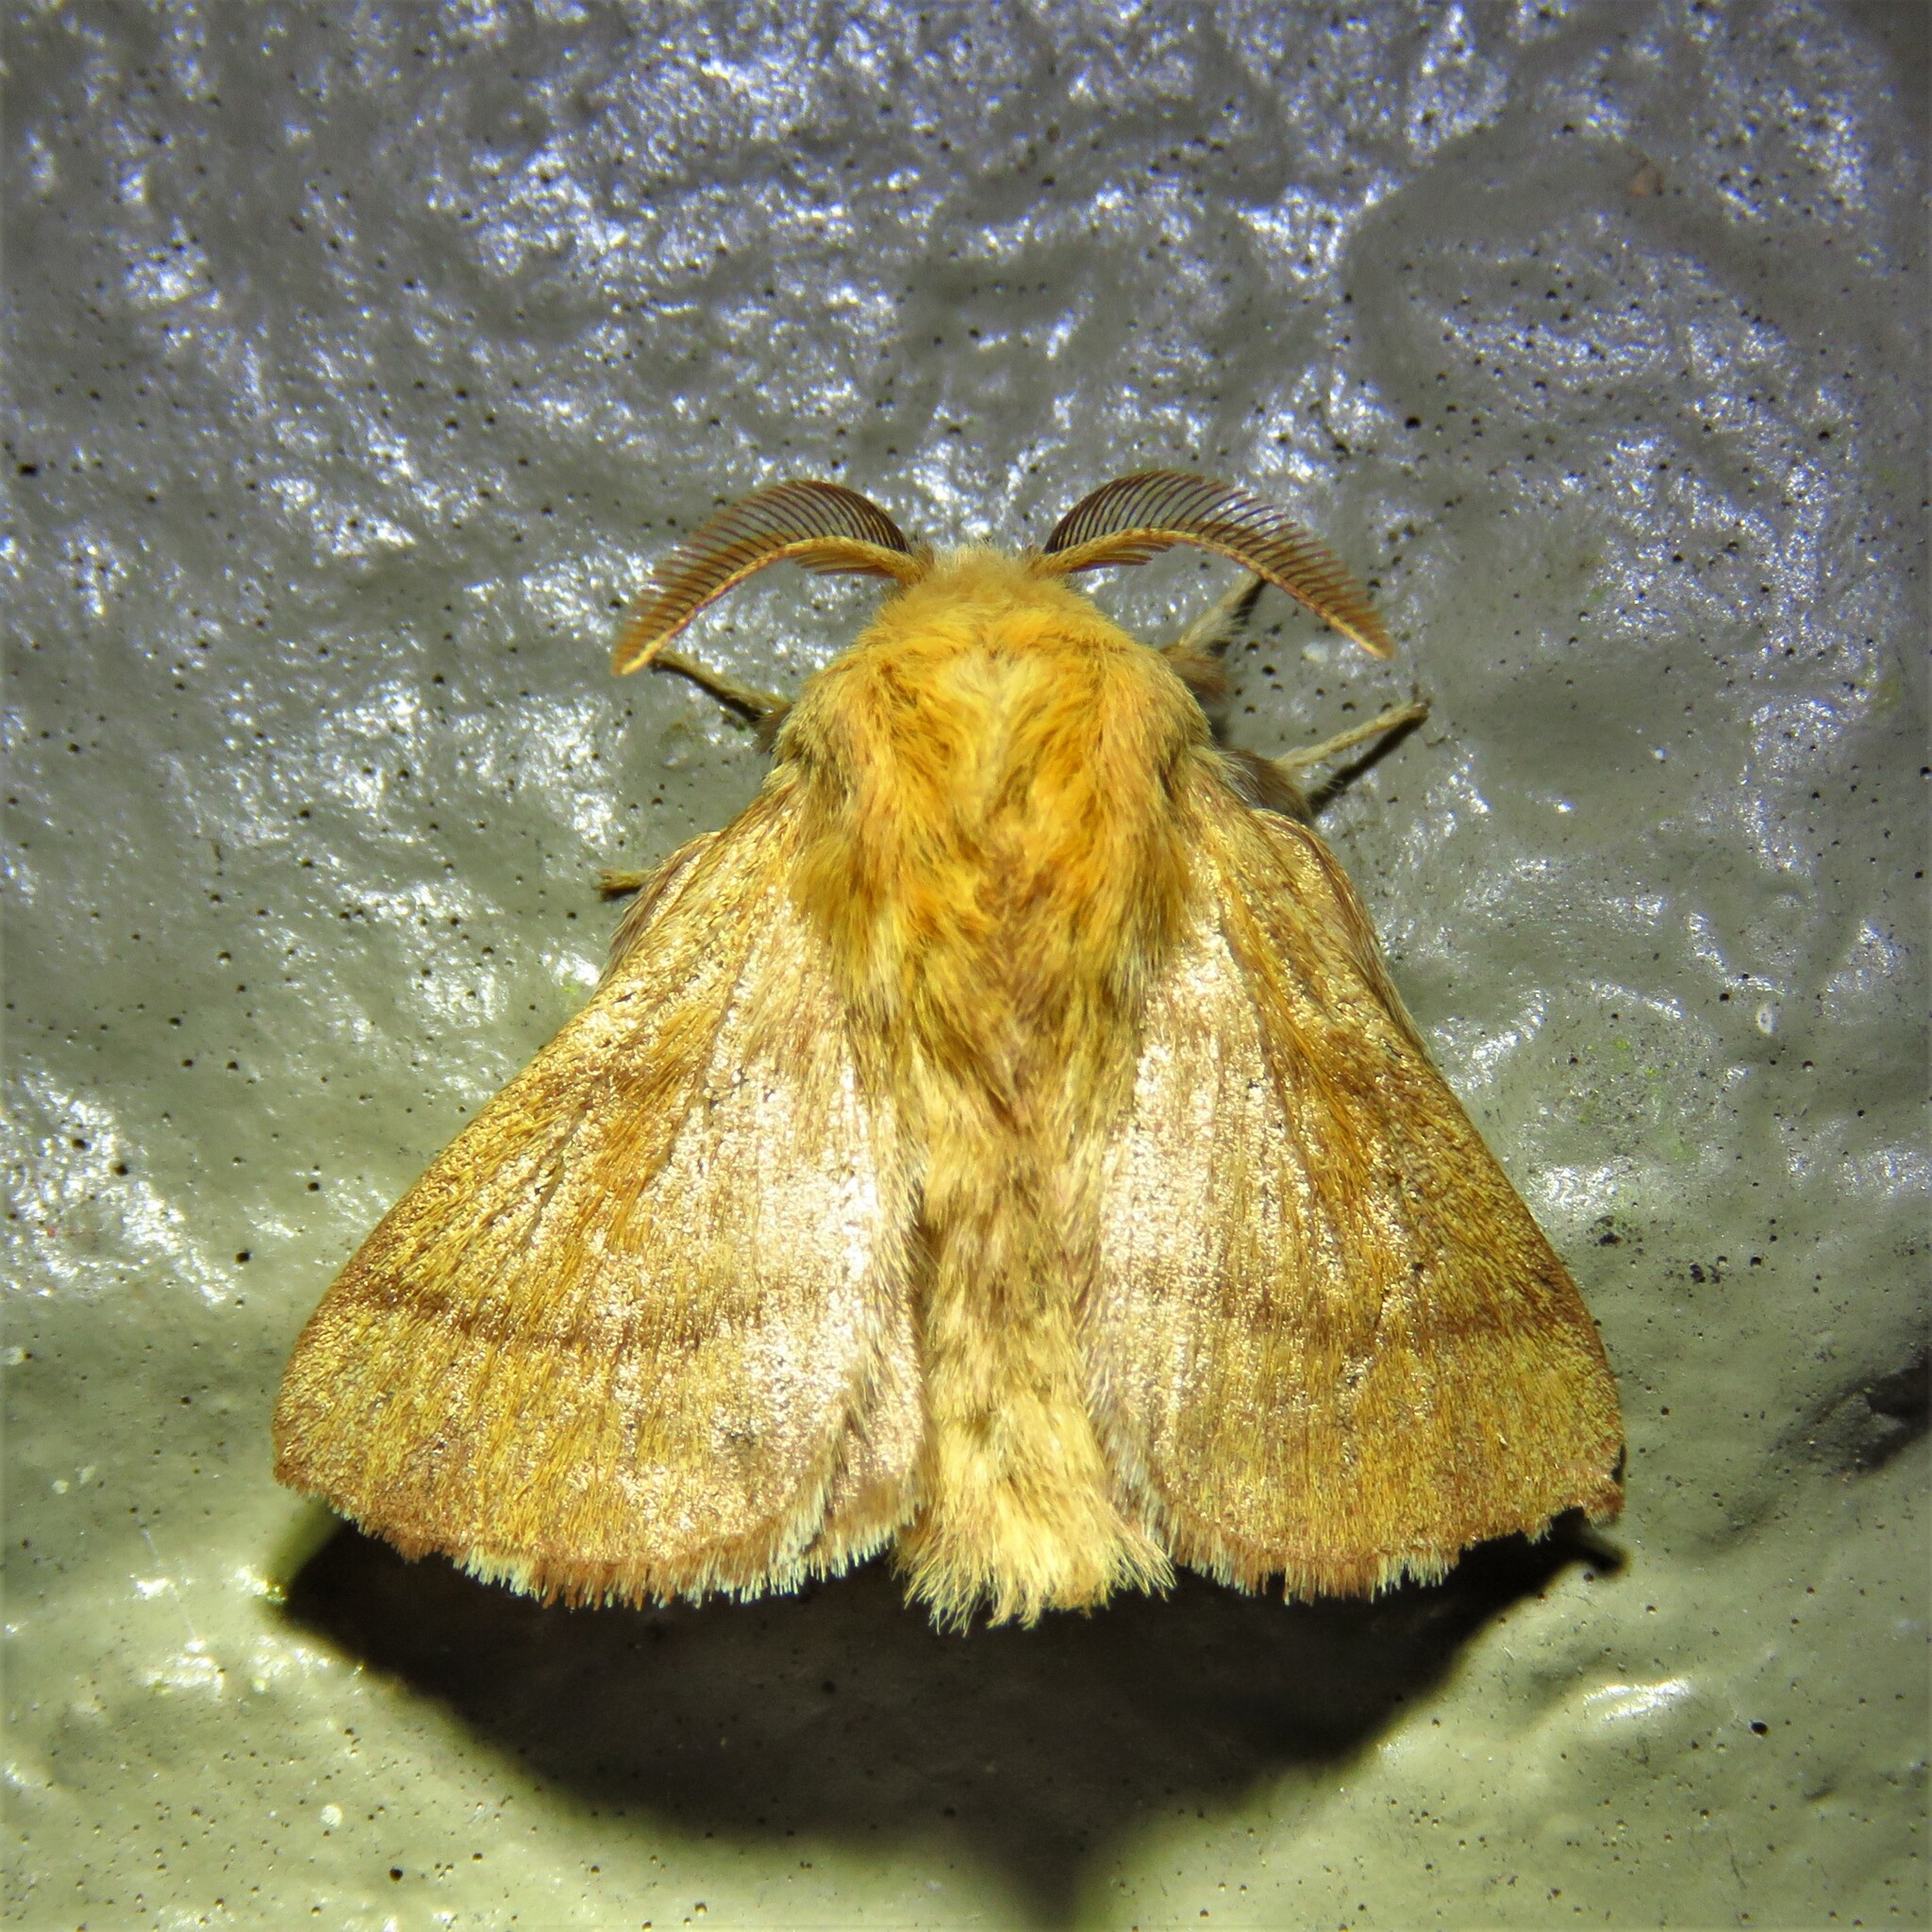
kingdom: Animalia
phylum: Arthropoda
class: Insecta
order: Lepidoptera
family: Lasiocampidae
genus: Malacosoma
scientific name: Malacosoma disstria
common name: Forest tent caterpillar
